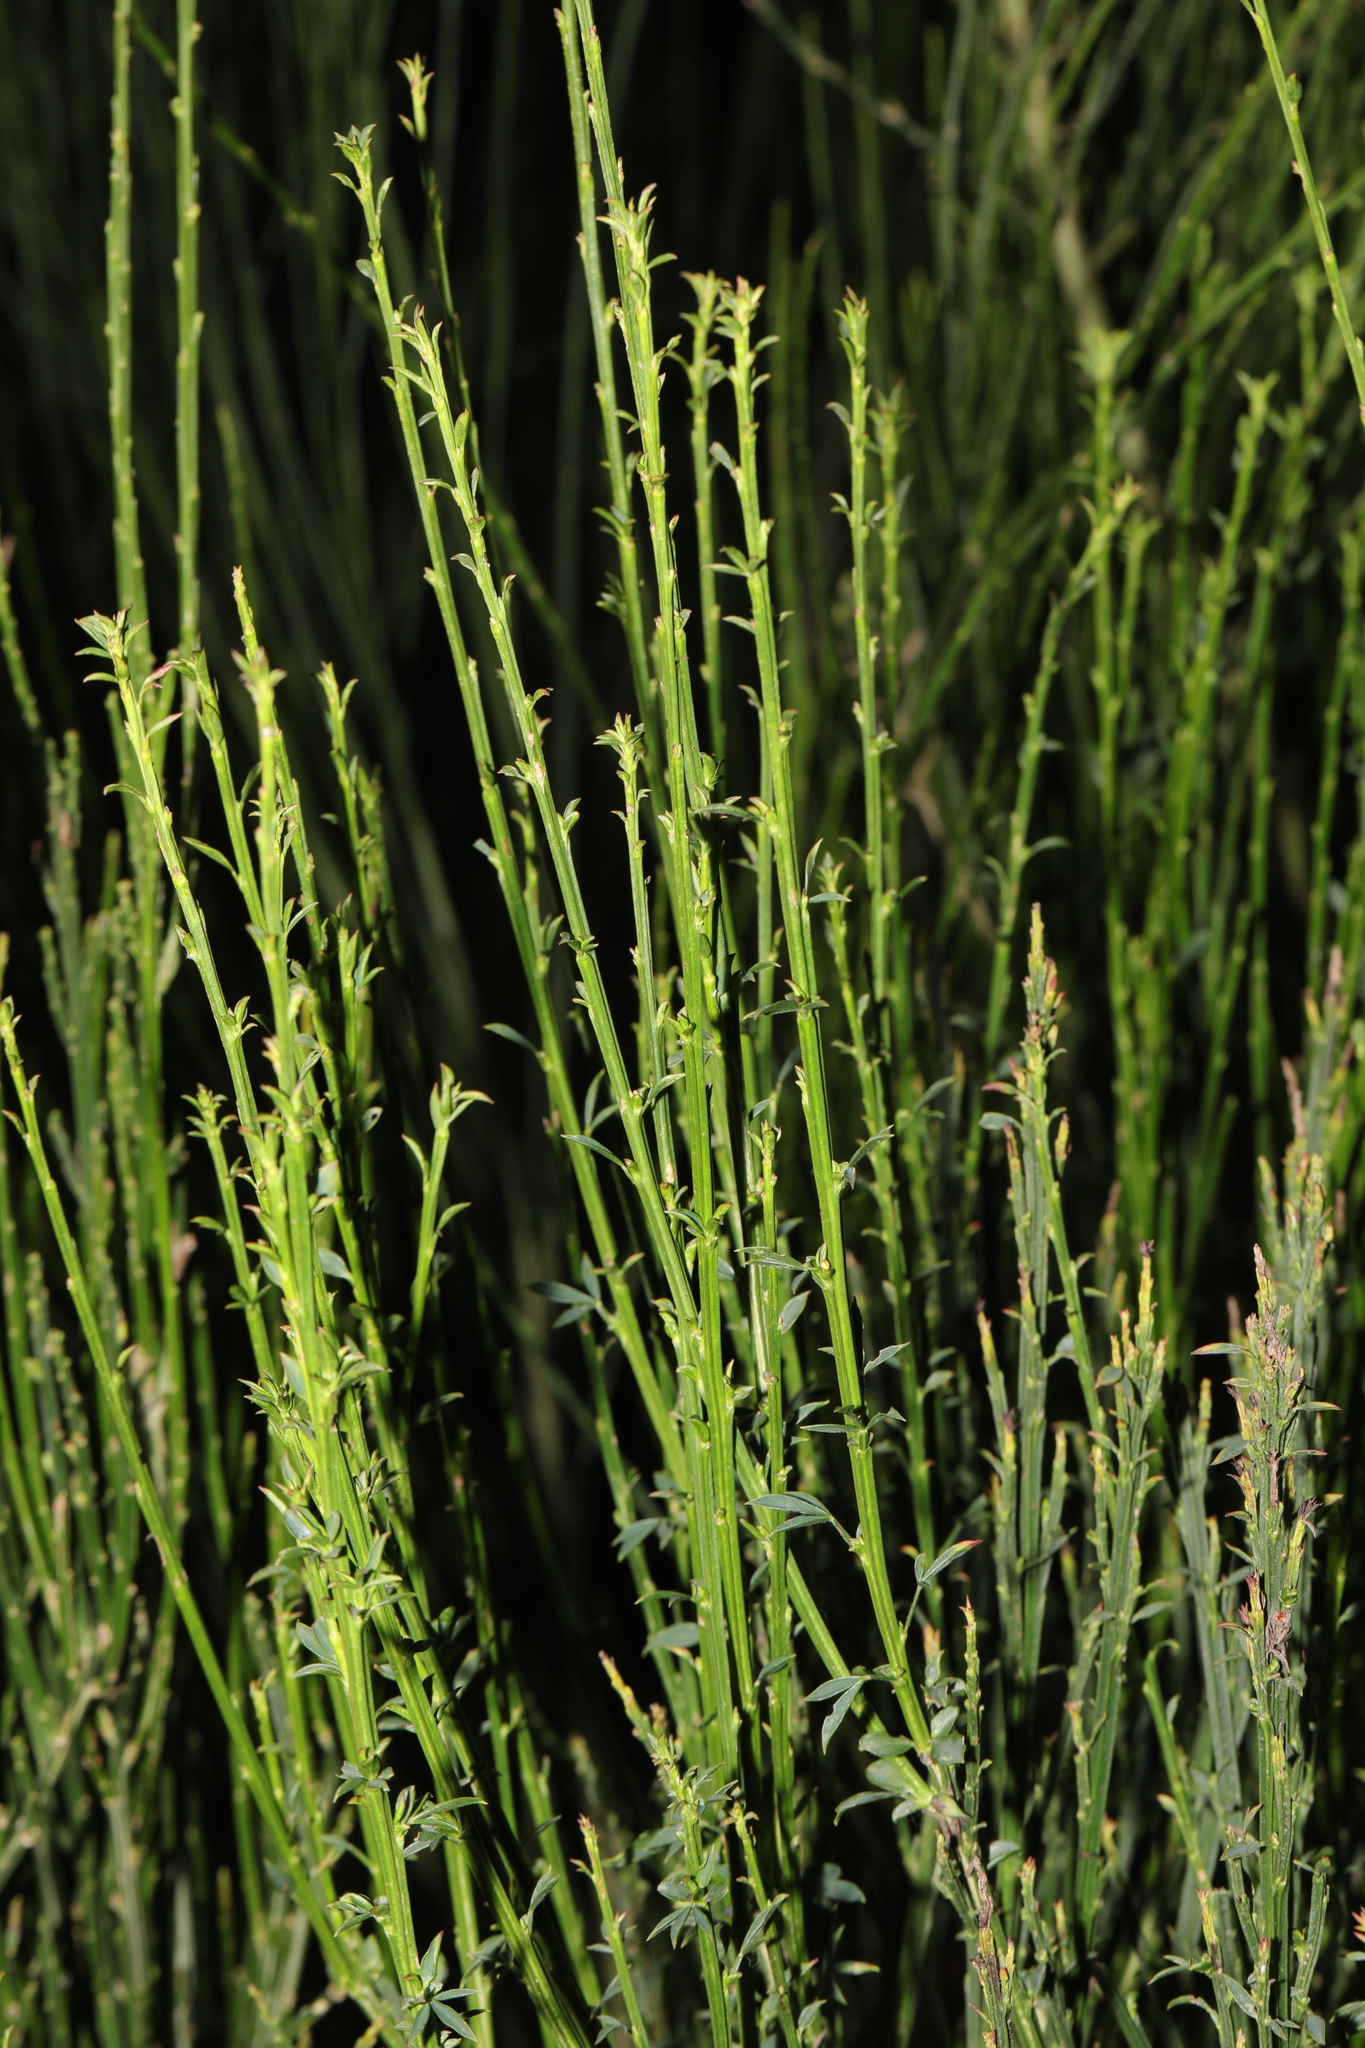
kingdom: Plantae
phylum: Tracheophyta
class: Magnoliopsida
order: Fabales
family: Fabaceae
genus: Cytisus
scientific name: Cytisus scoparius
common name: Scotch broom
